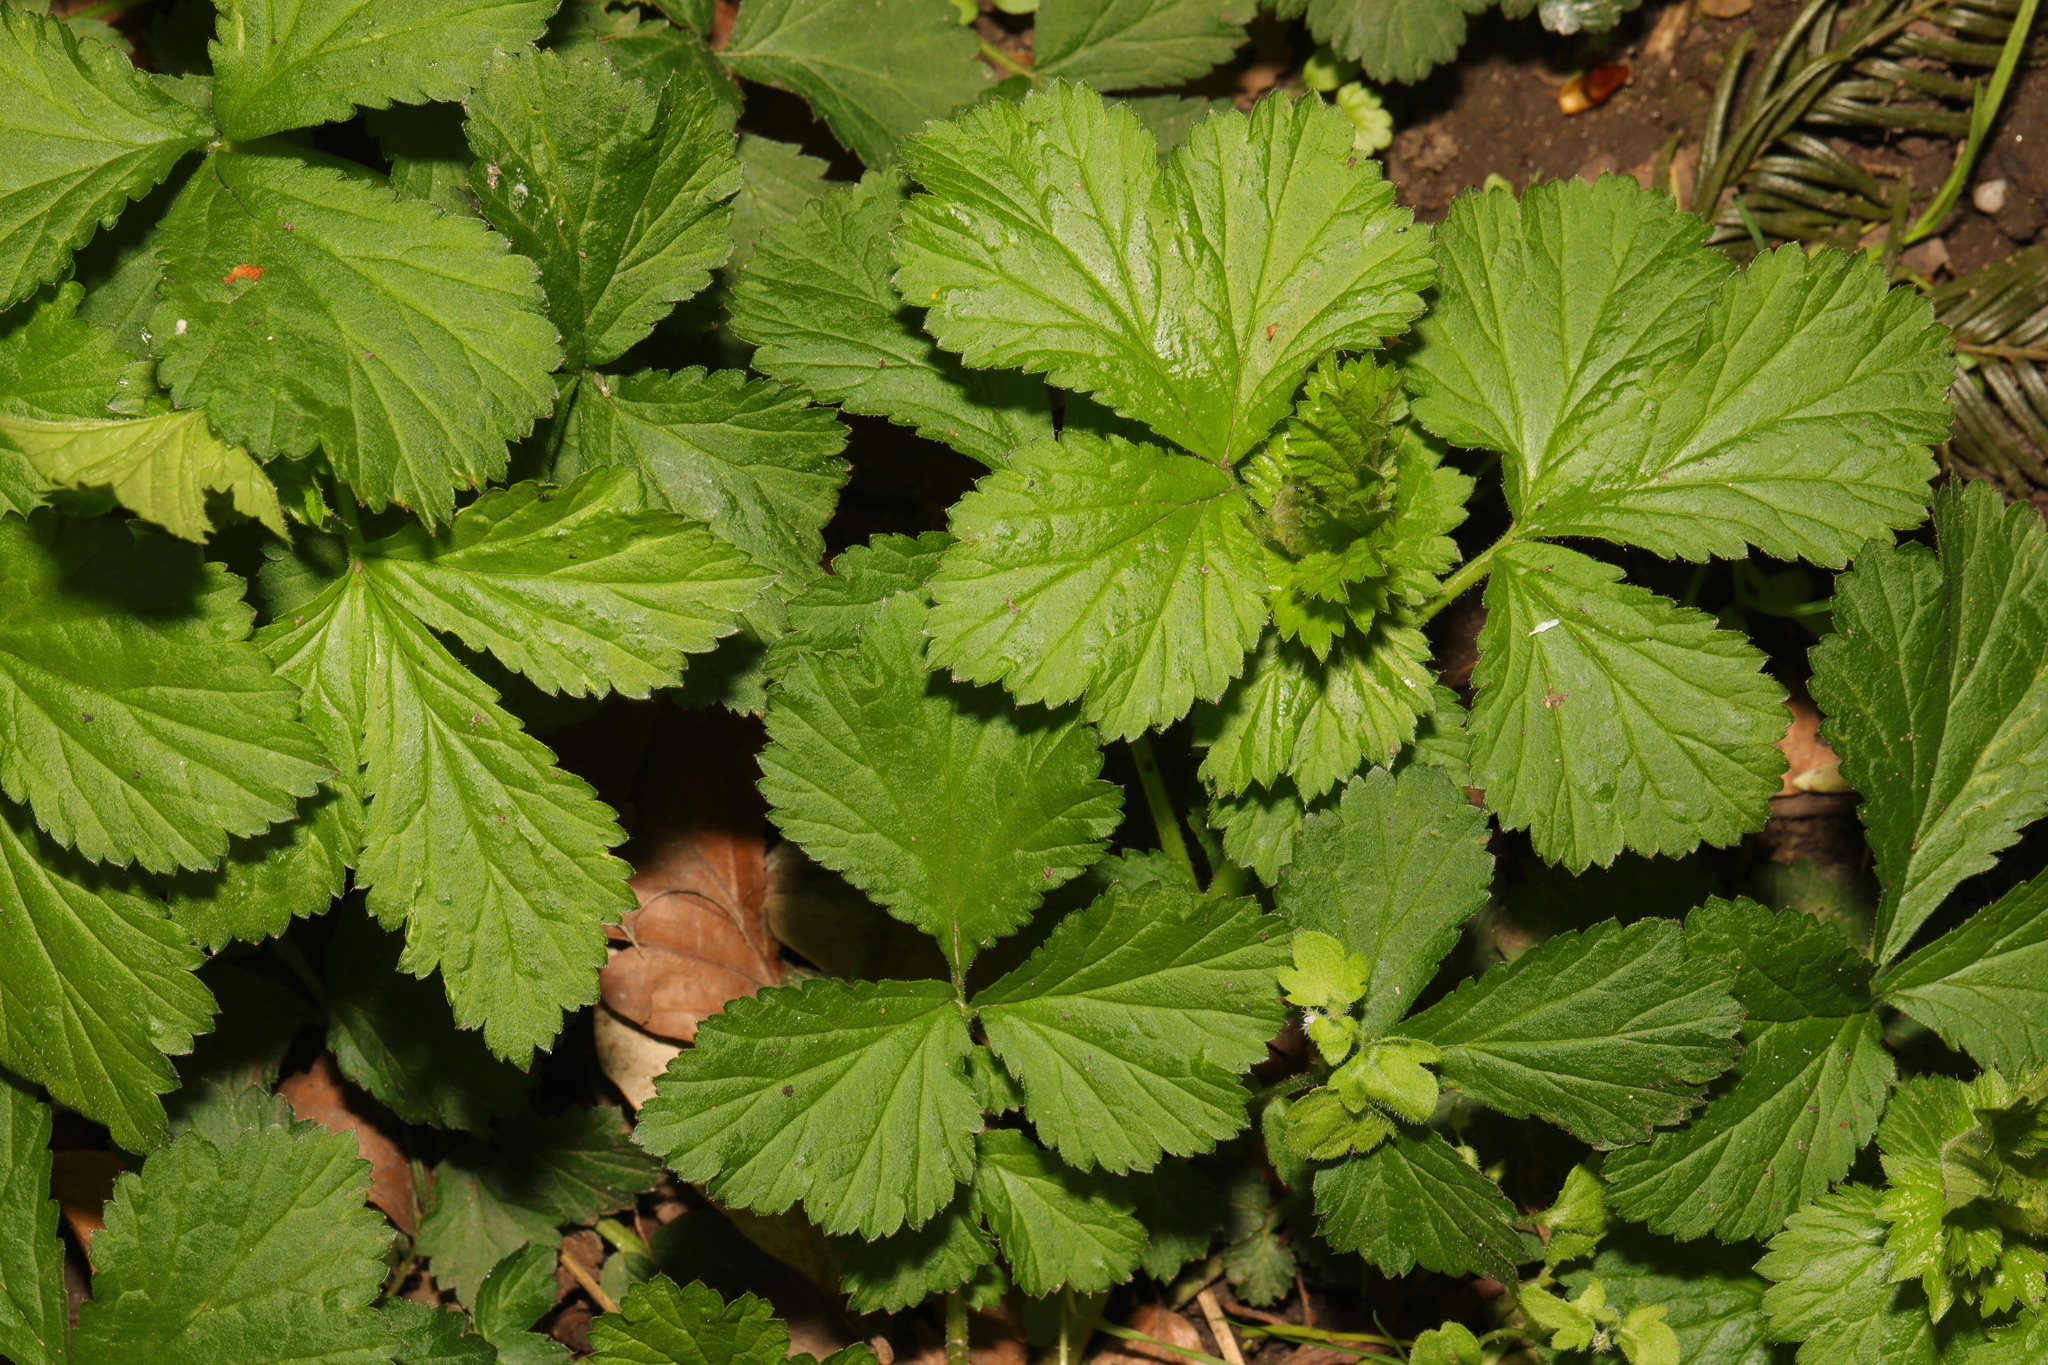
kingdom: Plantae
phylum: Tracheophyta
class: Magnoliopsida
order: Rosales
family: Rosaceae
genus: Geum
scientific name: Geum urbanum
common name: Wood avens
